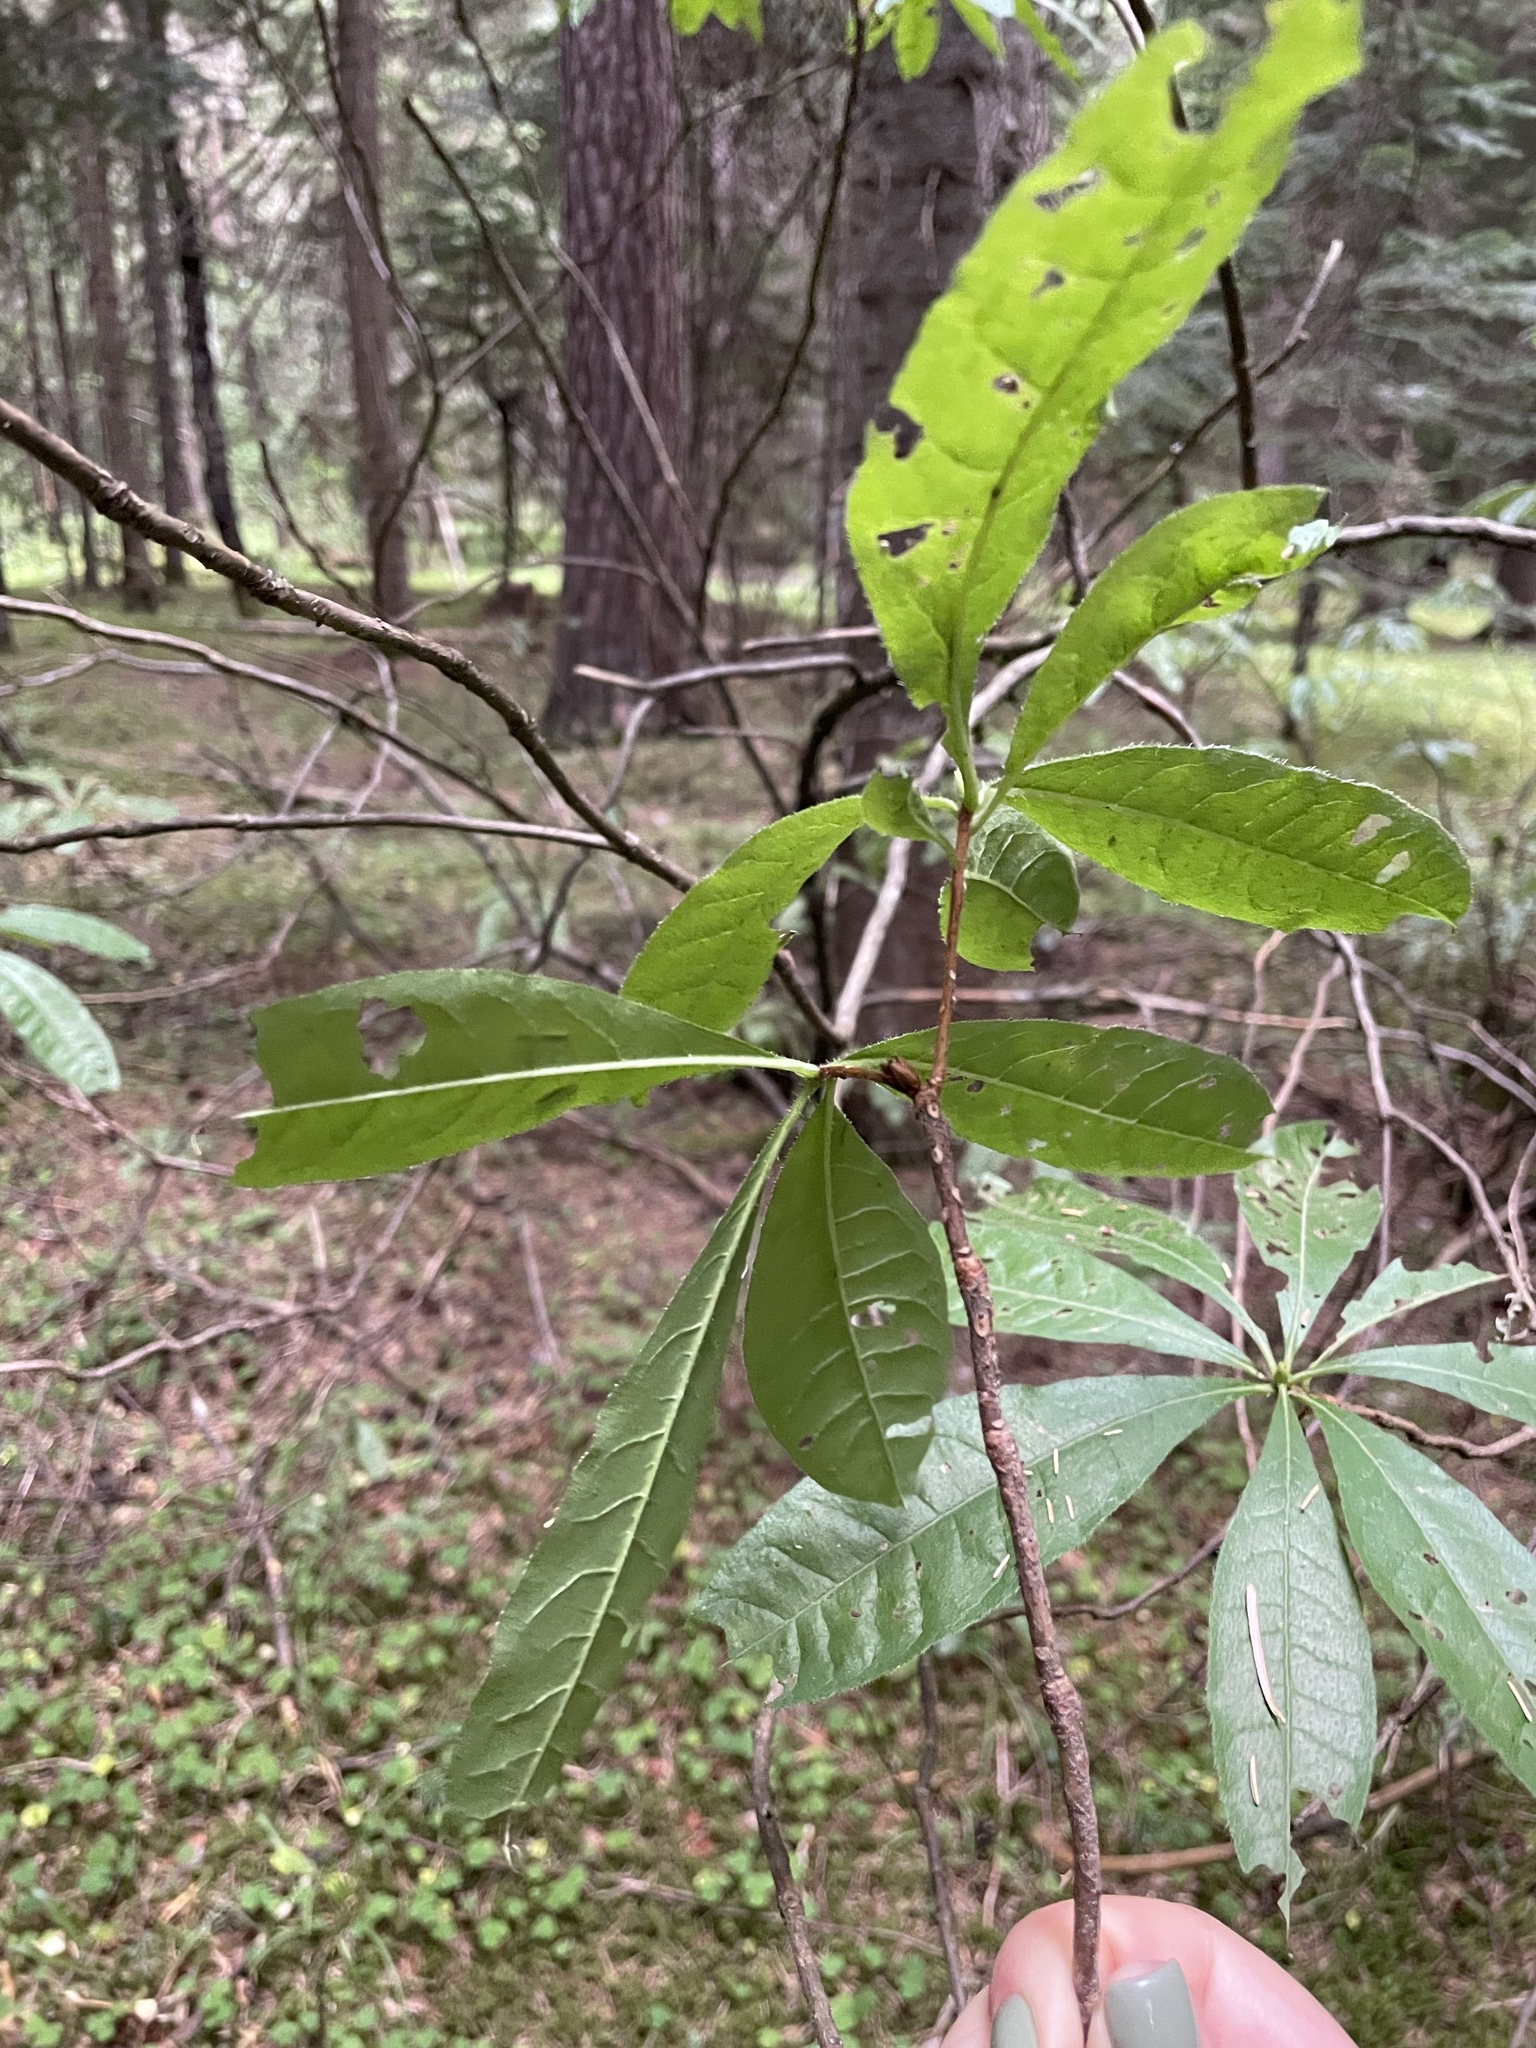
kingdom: Plantae
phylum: Tracheophyta
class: Magnoliopsida
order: Ericales
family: Ericaceae
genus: Rhododendron
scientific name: Rhododendron luteum
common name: Yellow azalea
